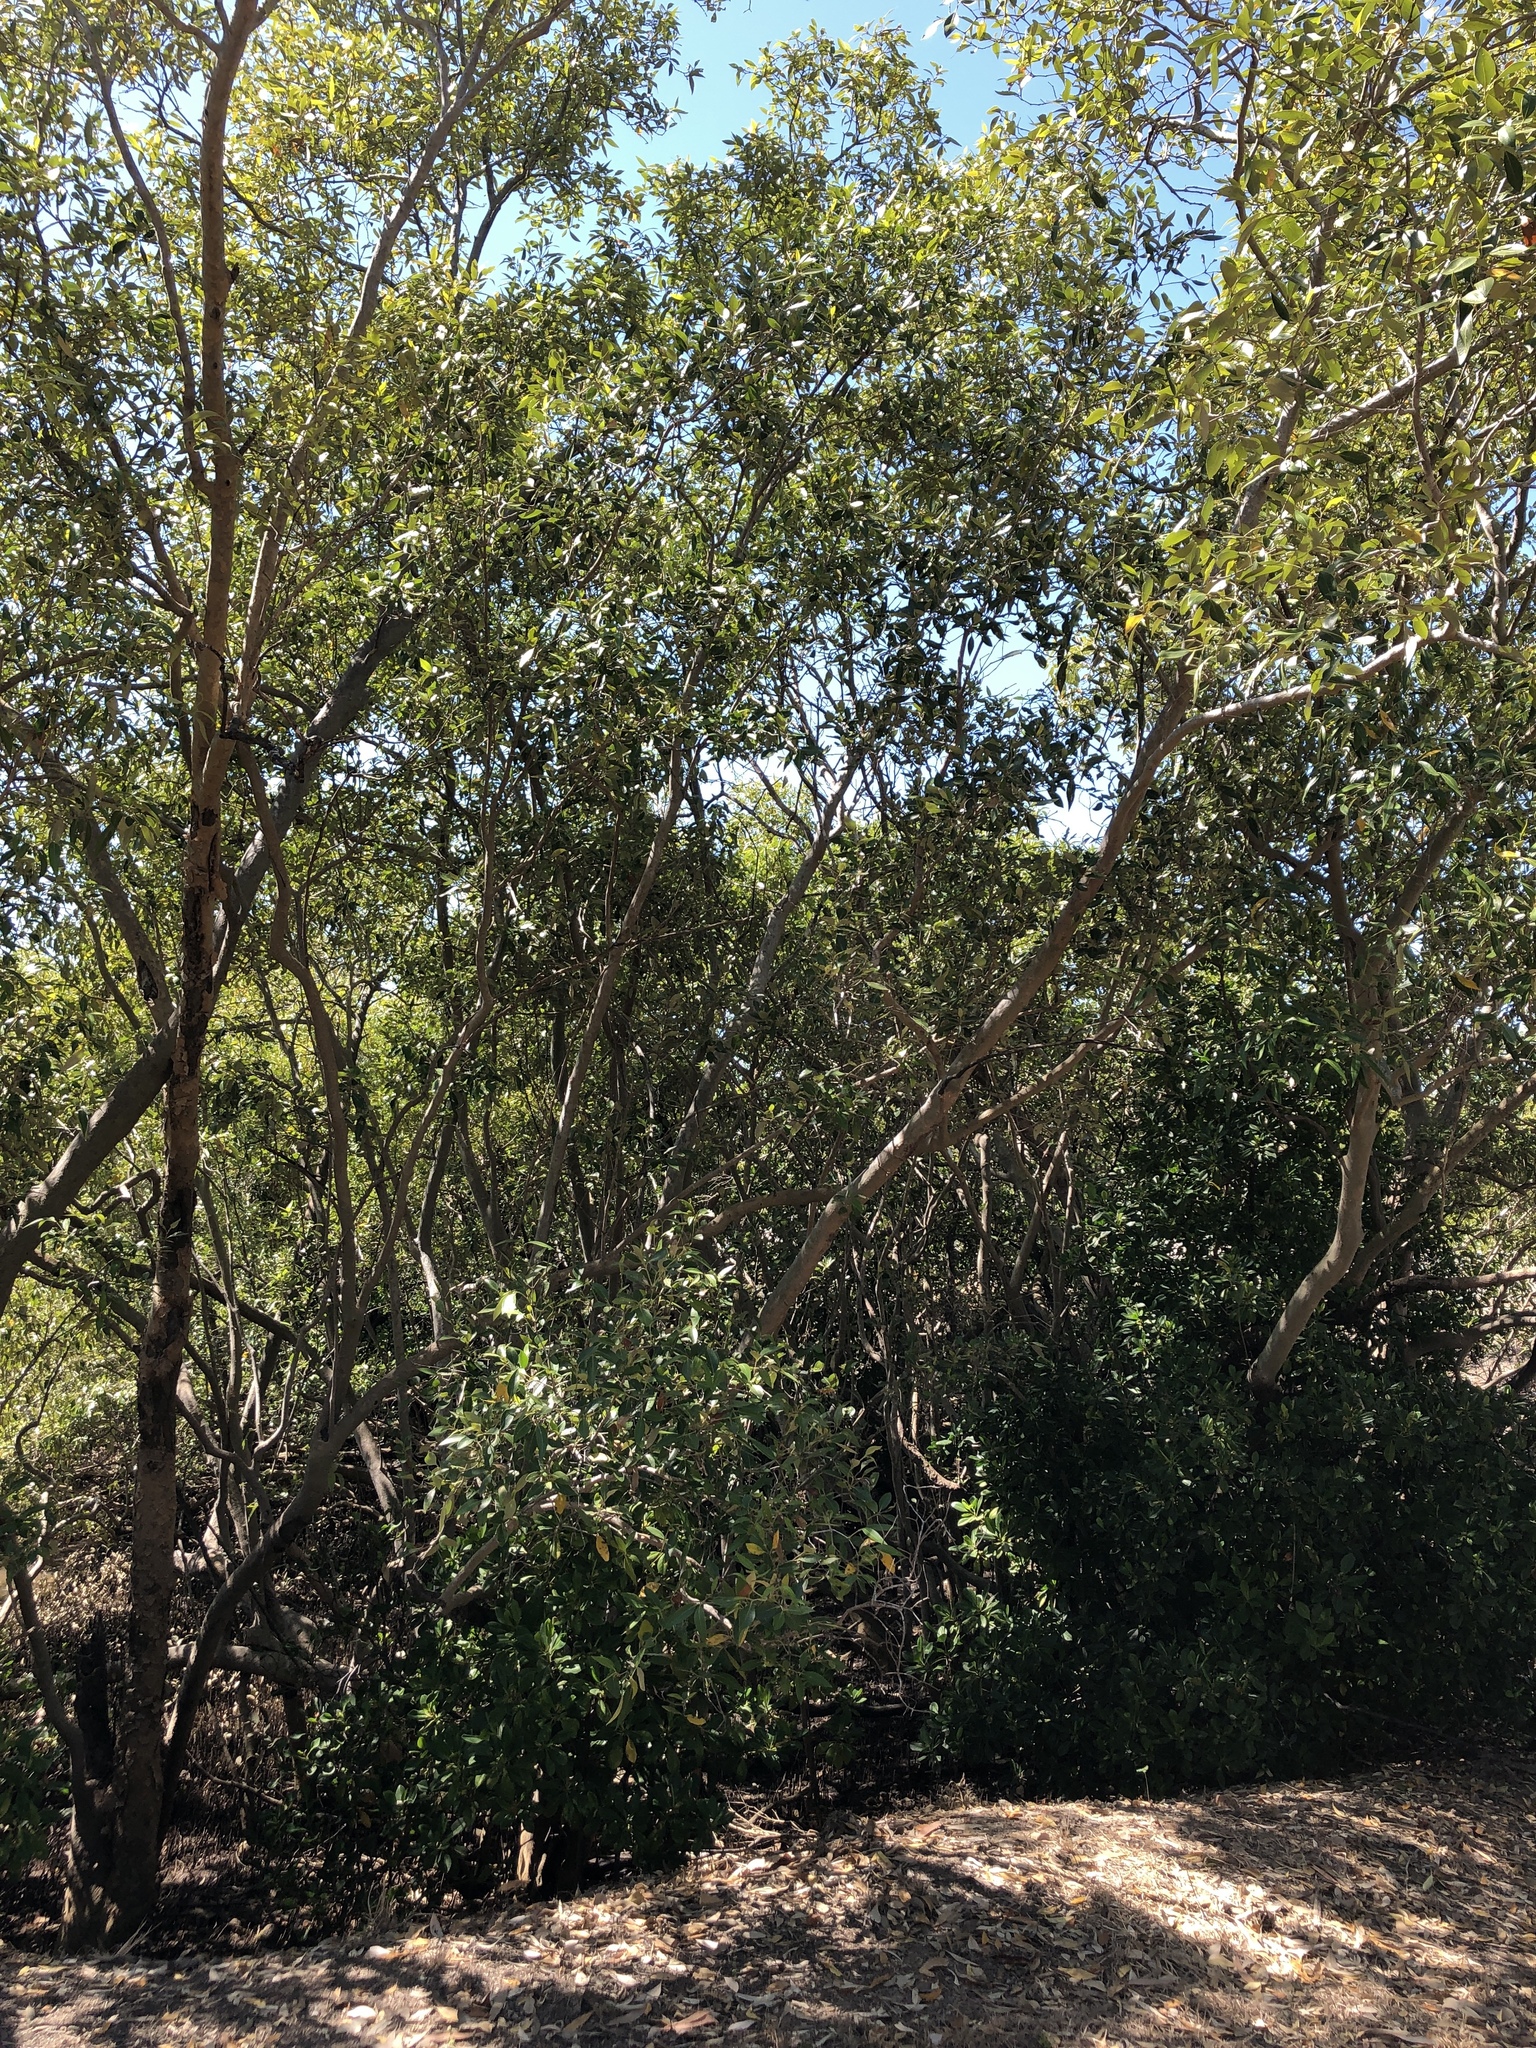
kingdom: Plantae
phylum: Tracheophyta
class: Magnoliopsida
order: Lamiales
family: Acanthaceae
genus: Avicennia
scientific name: Avicennia marina
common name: Gray mangrove
